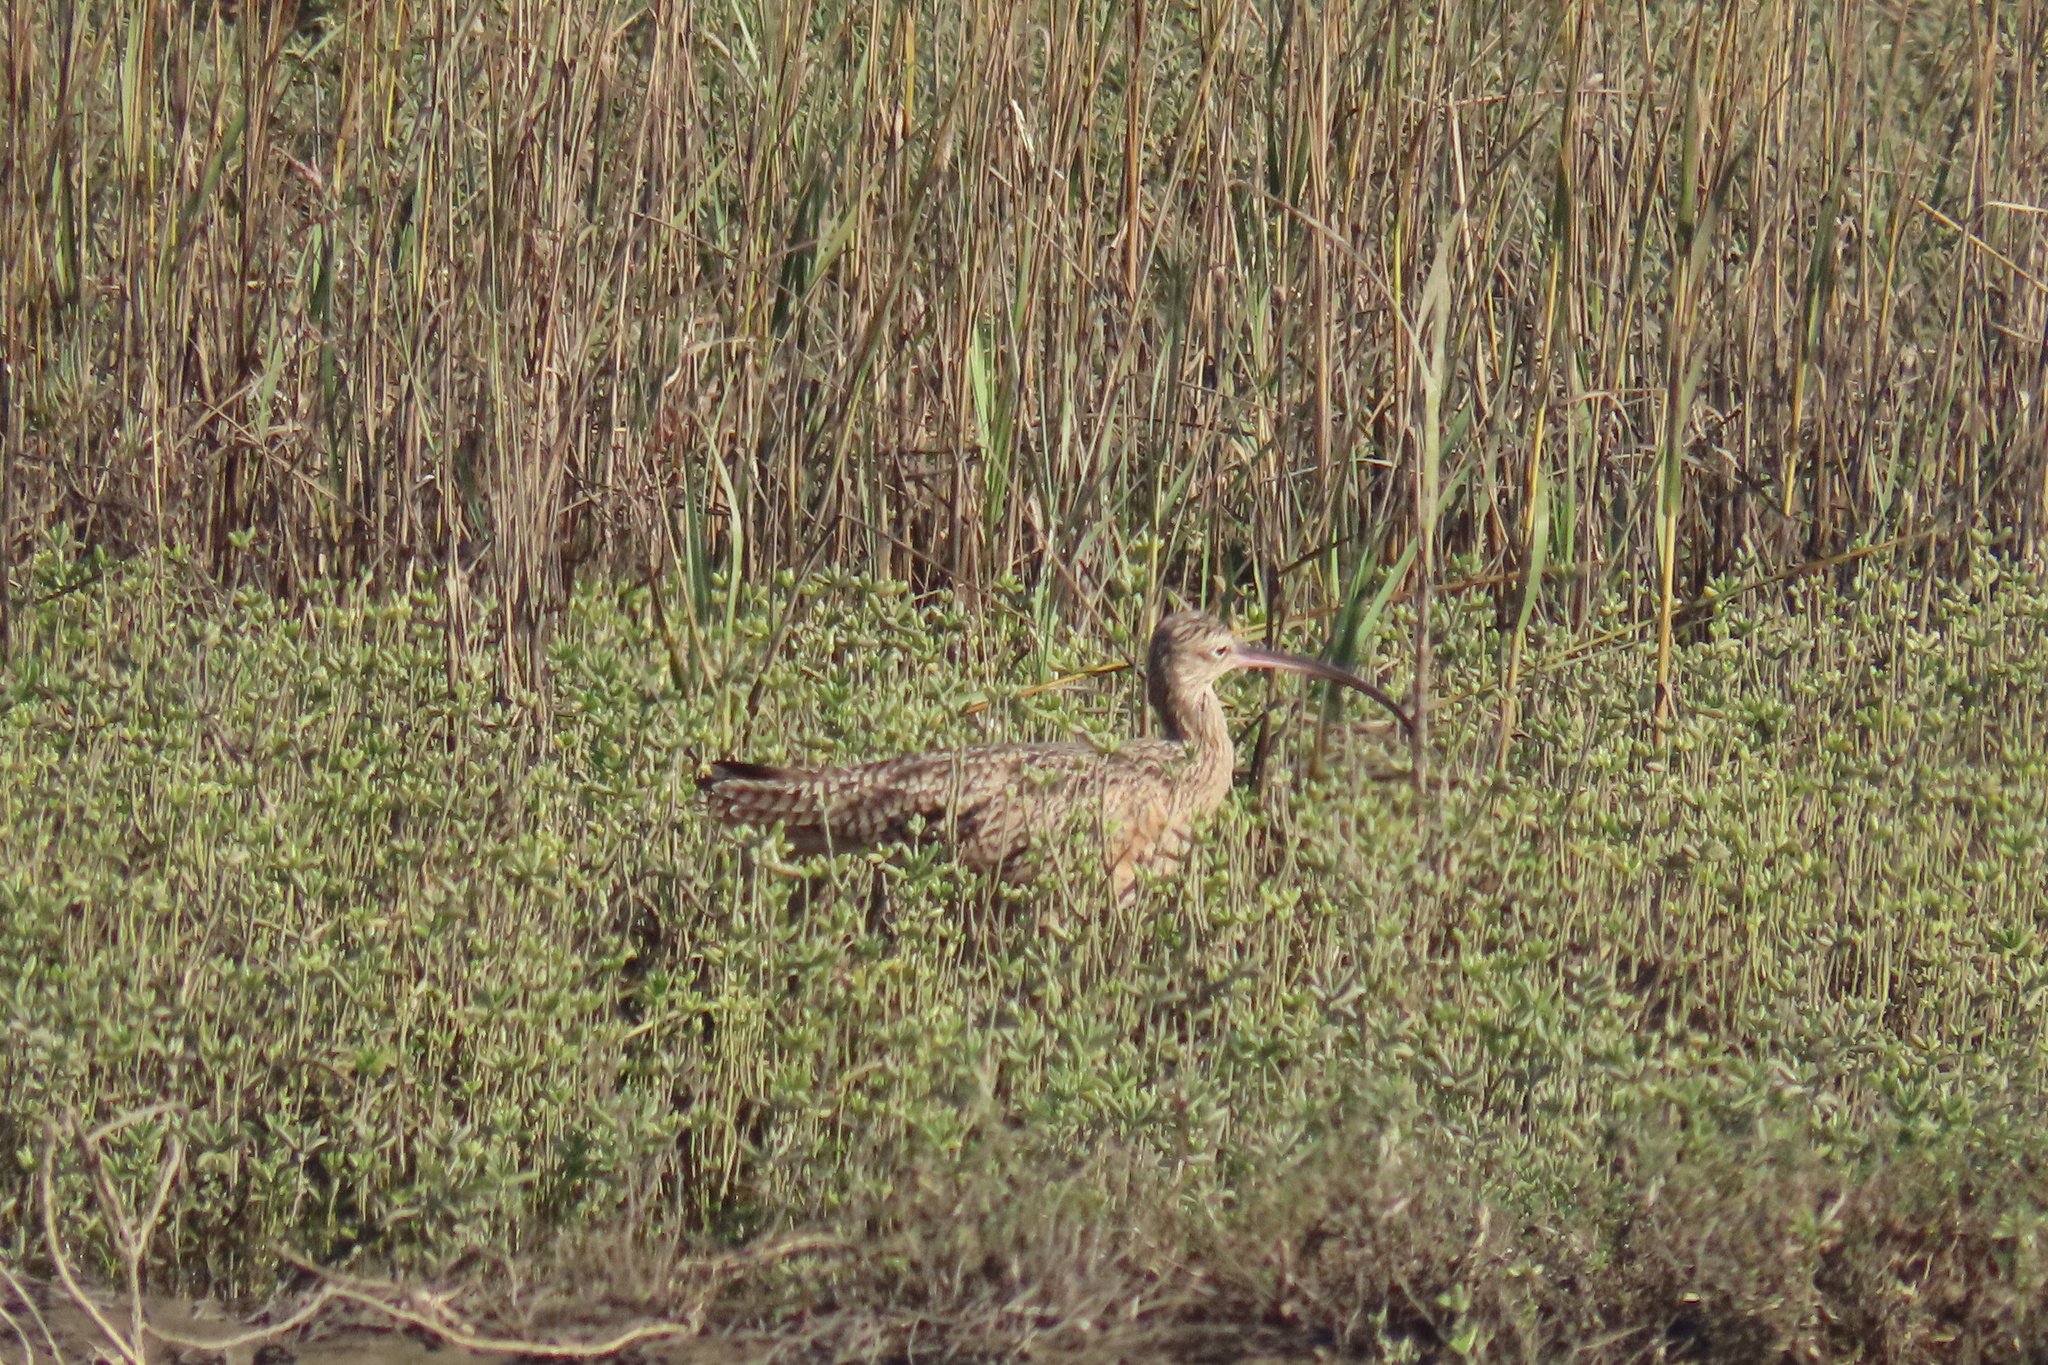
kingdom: Animalia
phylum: Chordata
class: Aves
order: Charadriiformes
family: Scolopacidae
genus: Numenius
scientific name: Numenius americanus
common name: Long-billed curlew
